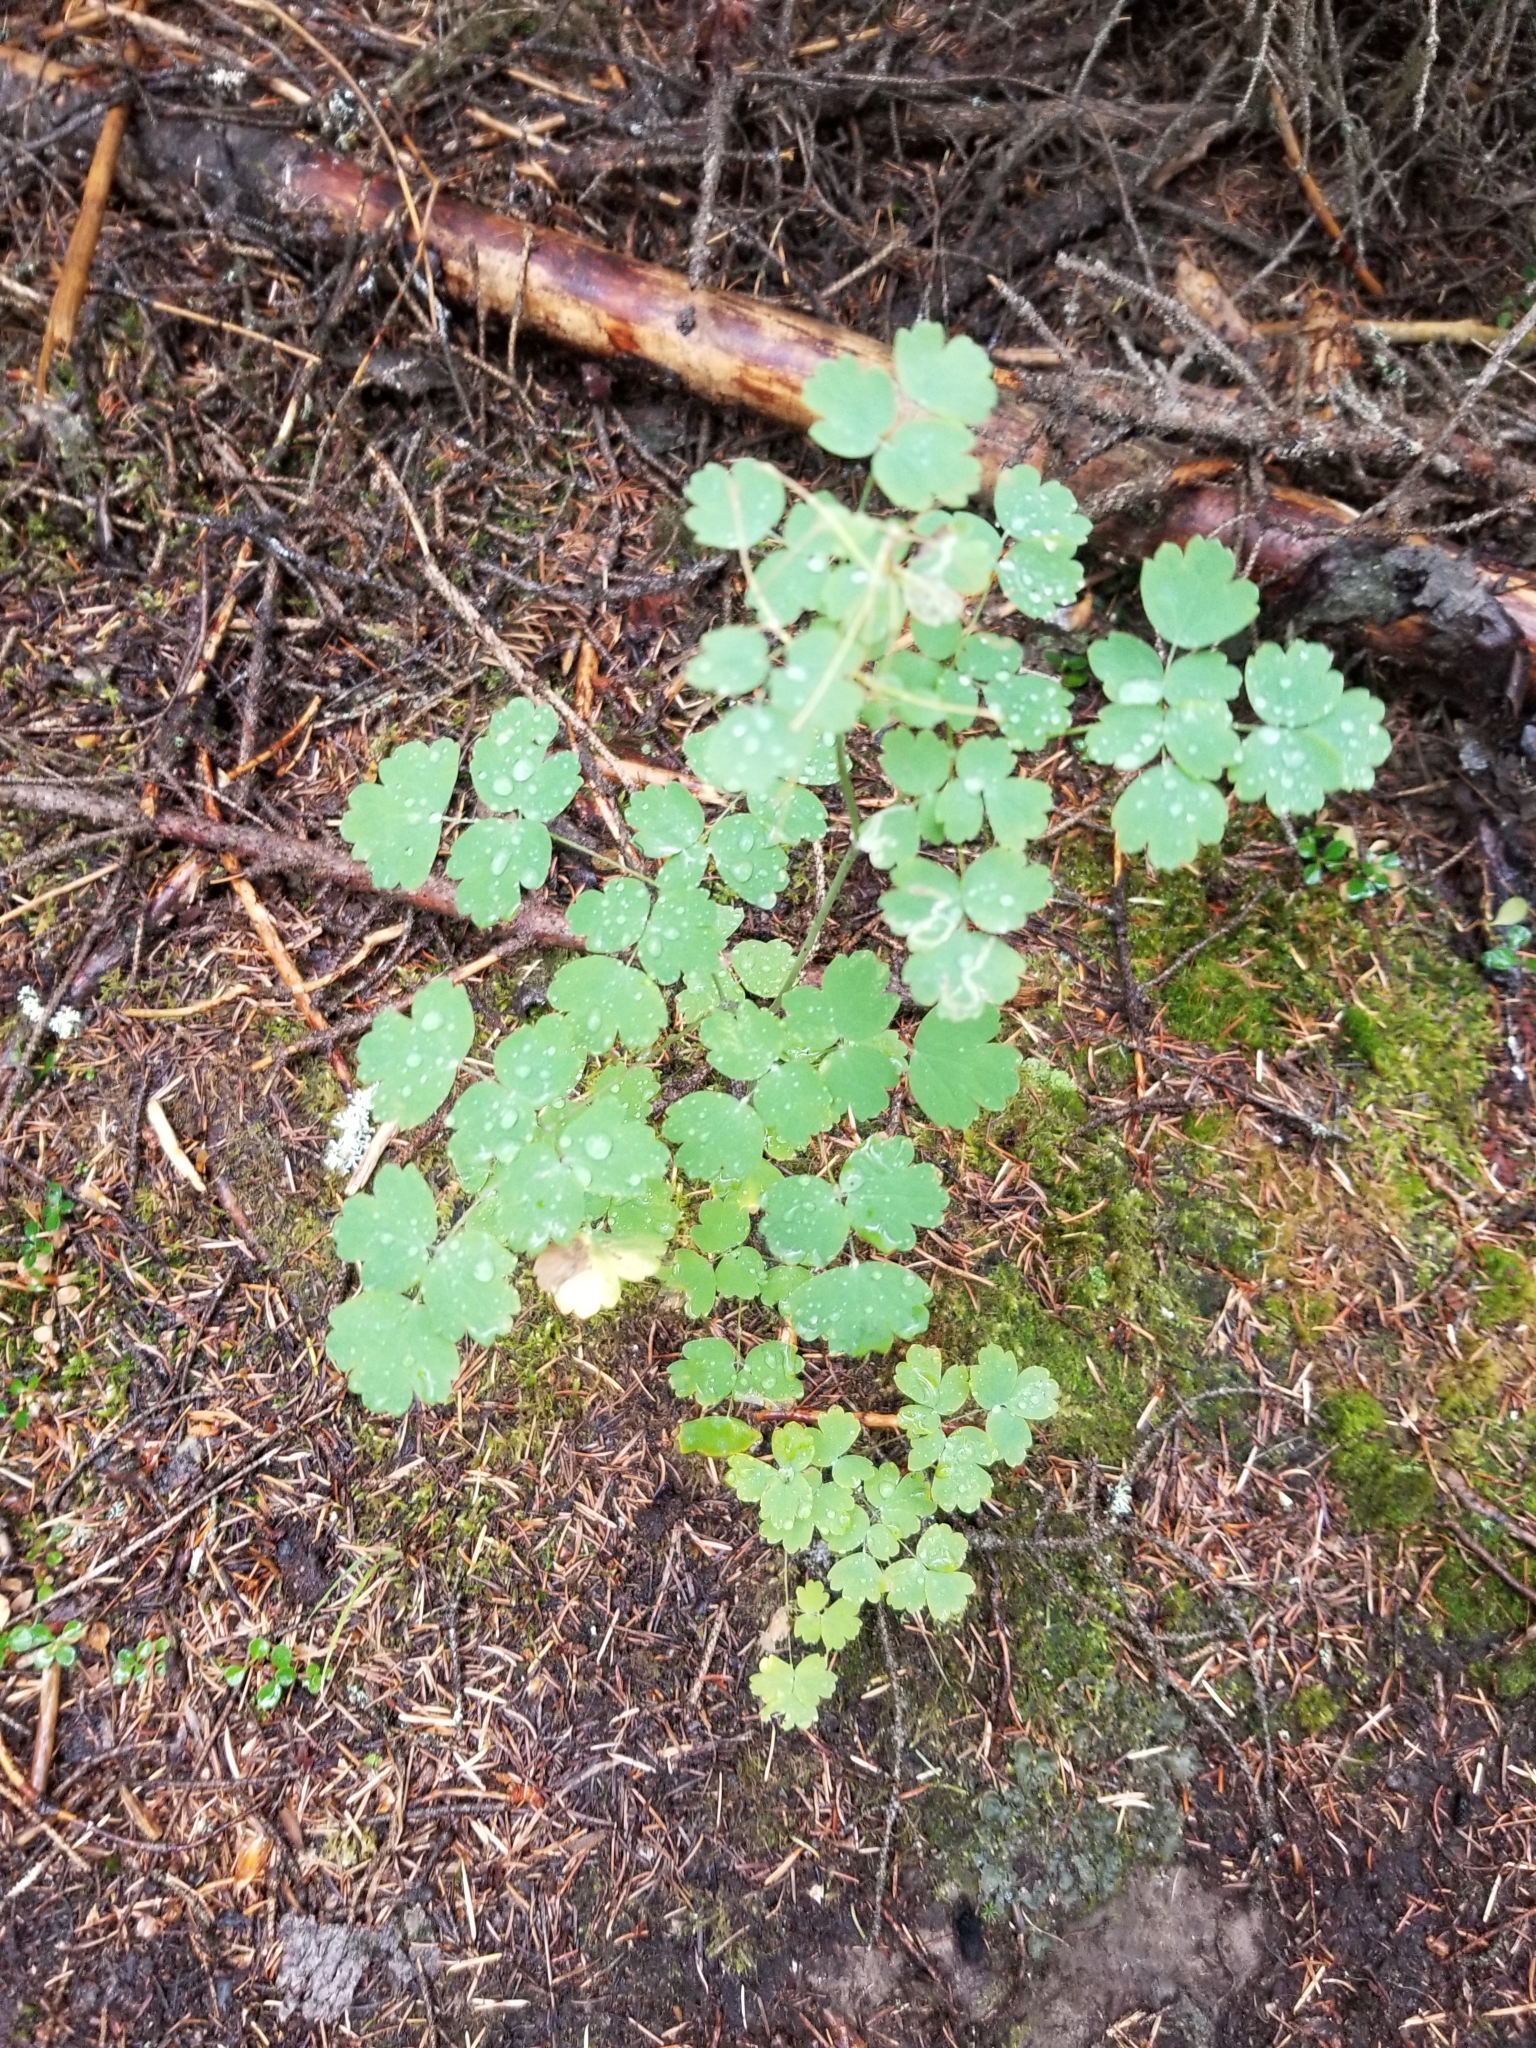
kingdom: Plantae
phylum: Tracheophyta
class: Magnoliopsida
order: Ranunculales
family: Ranunculaceae
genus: Thalictrum
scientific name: Thalictrum occidentale
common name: Western meadow-rue
